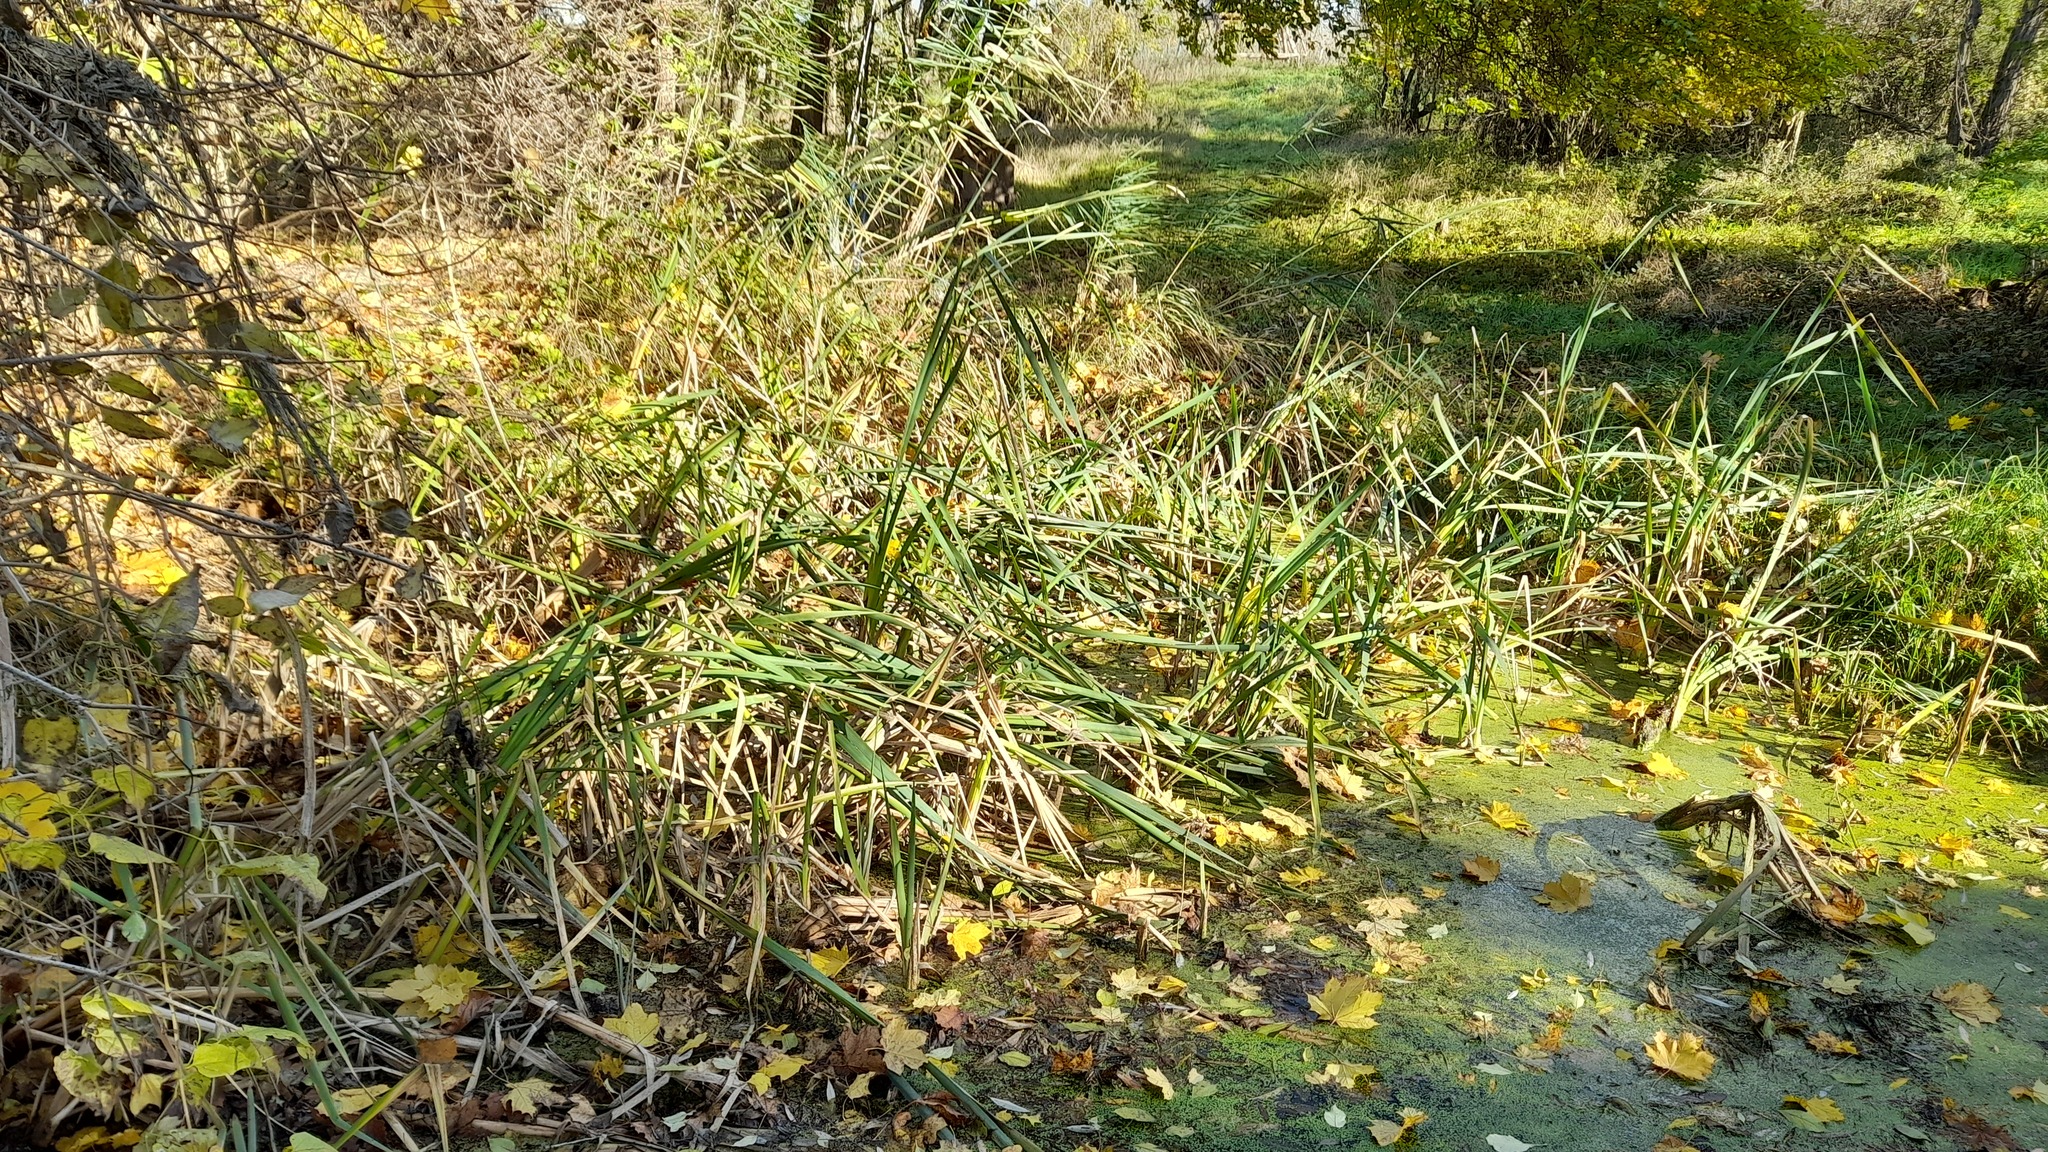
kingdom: Plantae
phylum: Tracheophyta
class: Liliopsida
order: Poales
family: Typhaceae
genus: Typha
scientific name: Typha latifolia
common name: Broadleaf cattail
